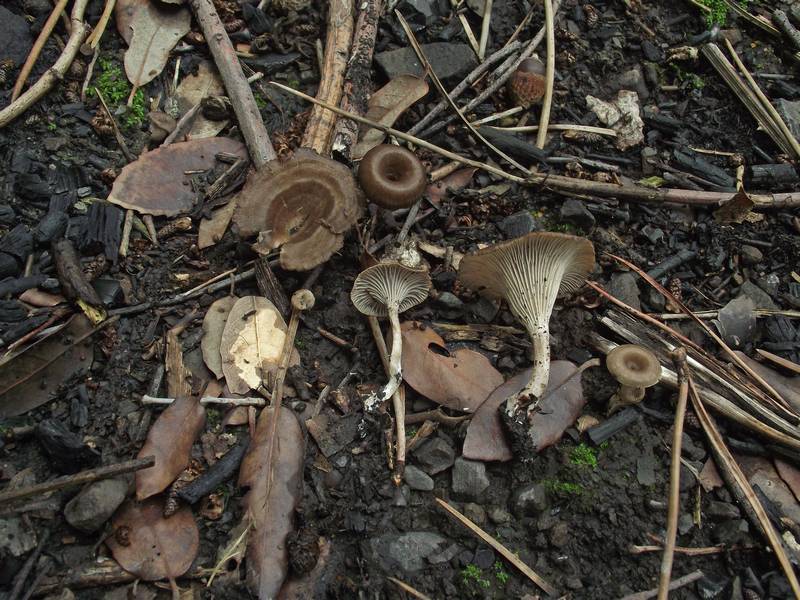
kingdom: Fungi
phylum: Basidiomycota
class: Agaricomycetes
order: Polyporales
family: Polyporaceae
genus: Faerberia
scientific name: Faerberia carbonaria
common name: Firesite funnel
